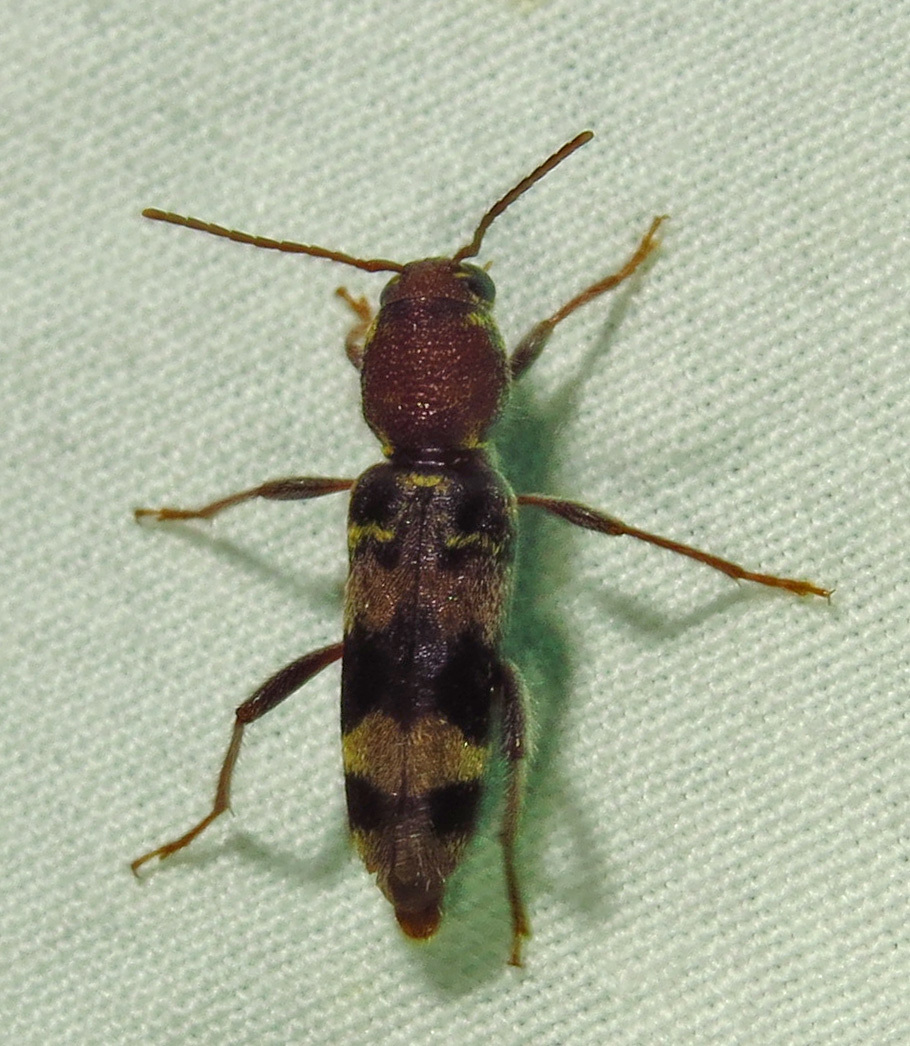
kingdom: Animalia
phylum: Arthropoda
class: Insecta
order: Coleoptera
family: Cerambycidae
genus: Xylotrechus
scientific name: Xylotrechus colonus
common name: Long-horned beetle
